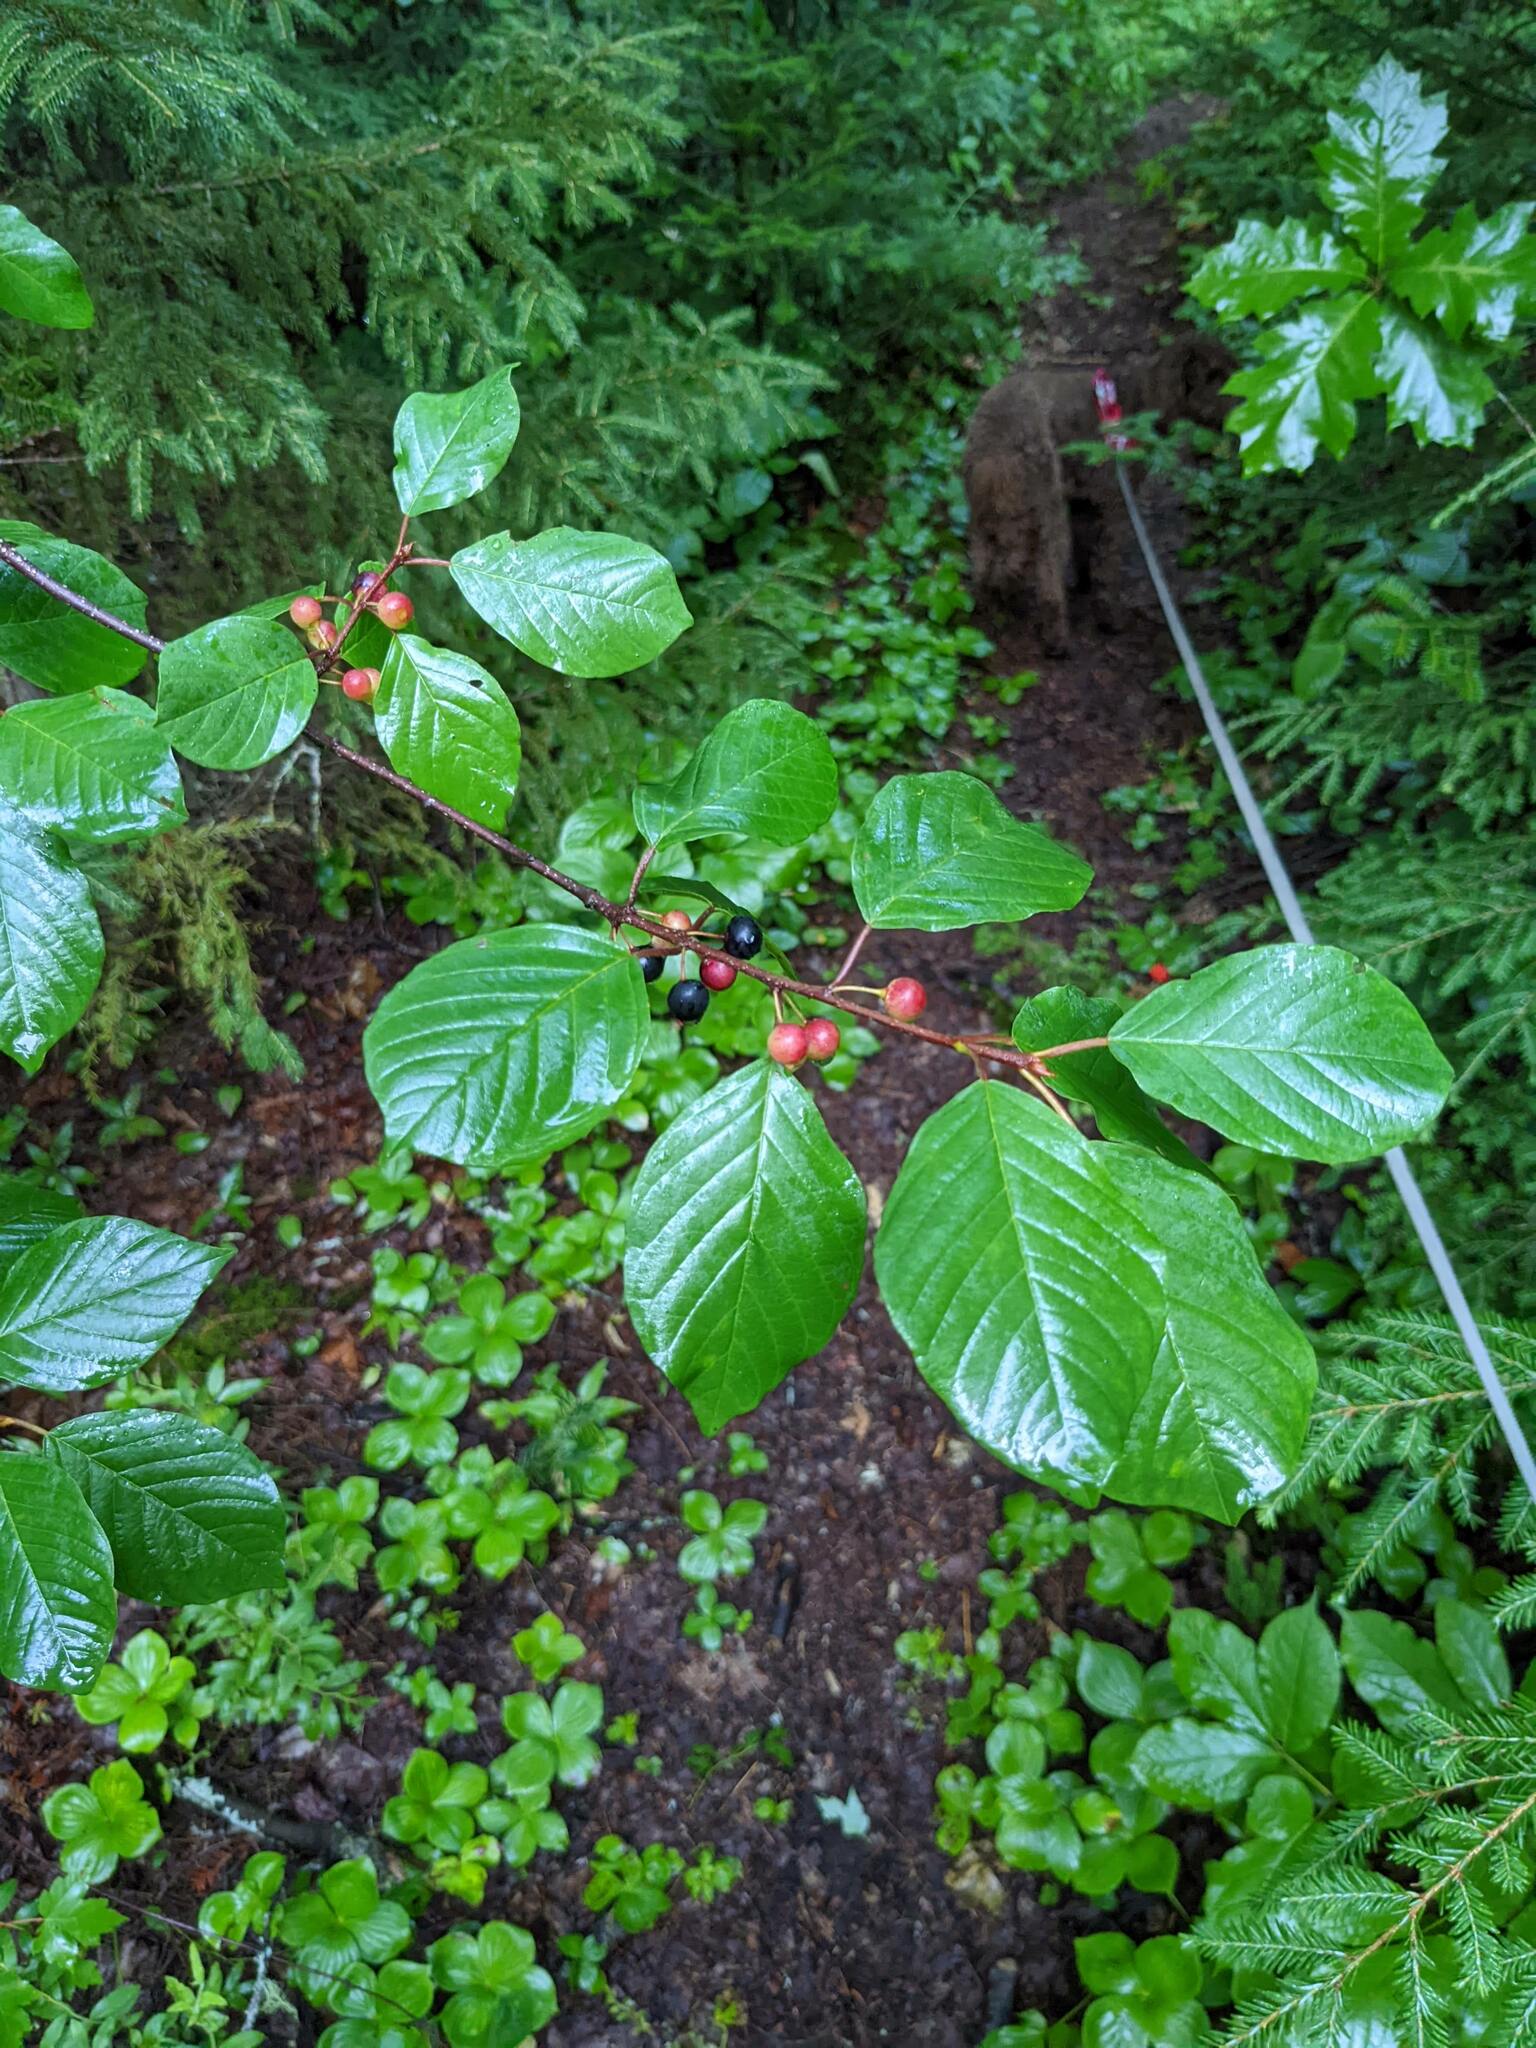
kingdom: Plantae
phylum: Tracheophyta
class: Magnoliopsida
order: Rosales
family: Rhamnaceae
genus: Frangula
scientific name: Frangula alnus
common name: Alder buckthorn
